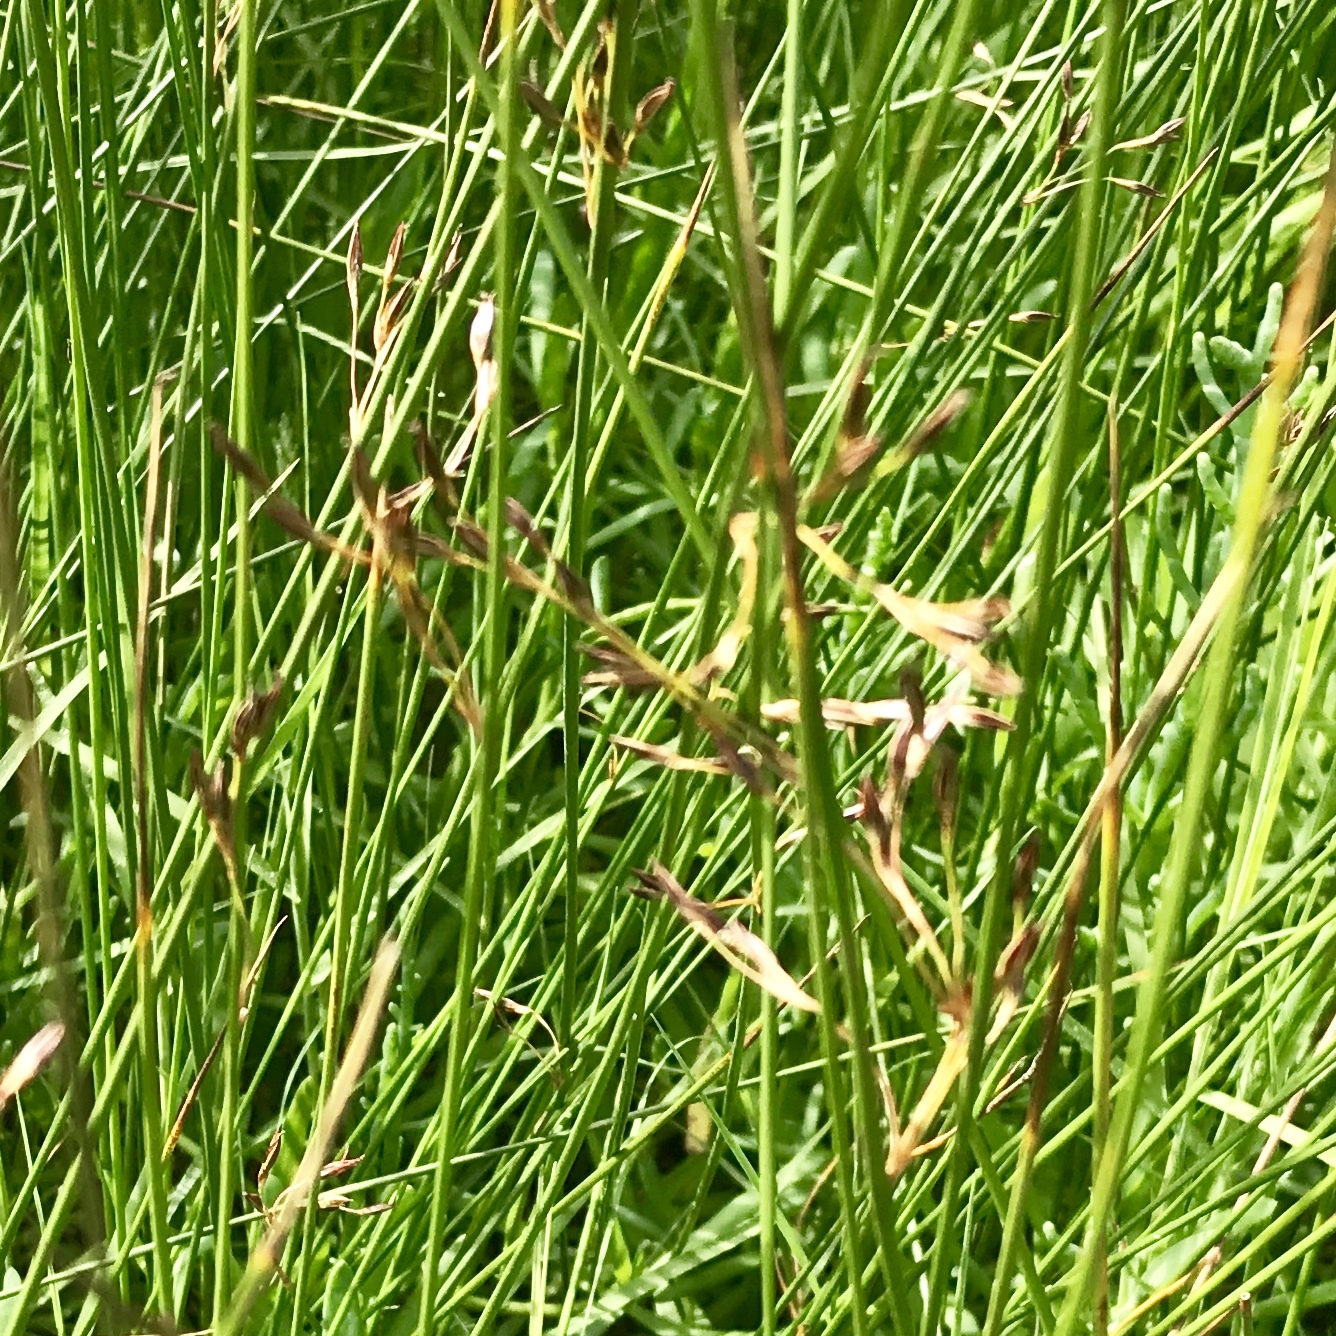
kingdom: Plantae
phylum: Tracheophyta
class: Liliopsida
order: Poales
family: Juncaceae
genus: Juncus
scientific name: Juncus effusus
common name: Soft rush
